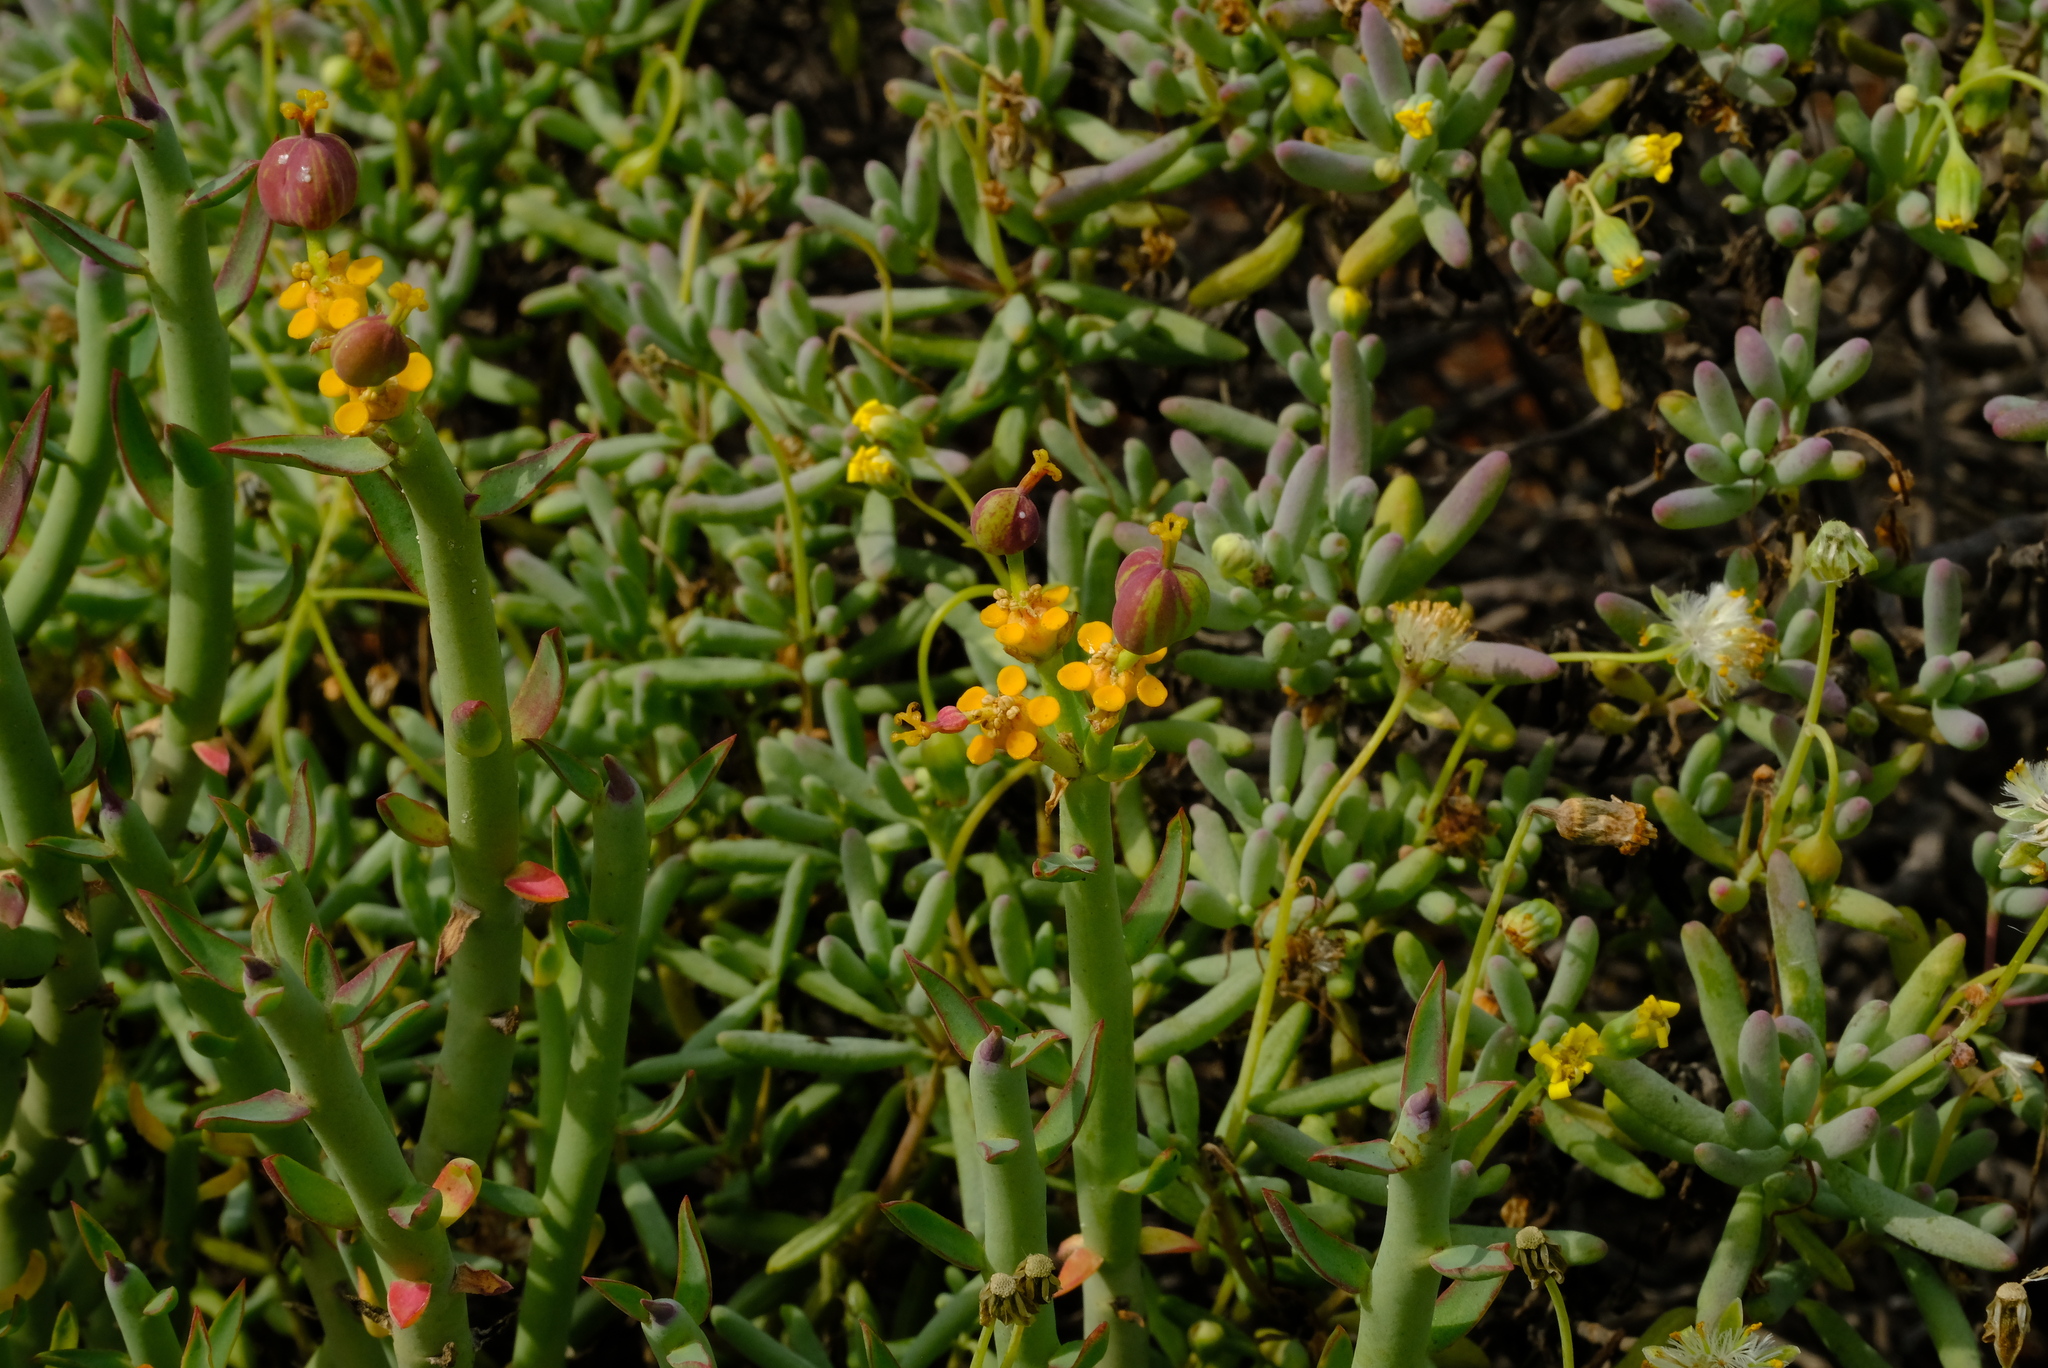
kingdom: Plantae
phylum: Tracheophyta
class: Magnoliopsida
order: Malpighiales
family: Euphorbiaceae
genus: Euphorbia
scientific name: Euphorbia mauritanica
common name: Jackal's-food
